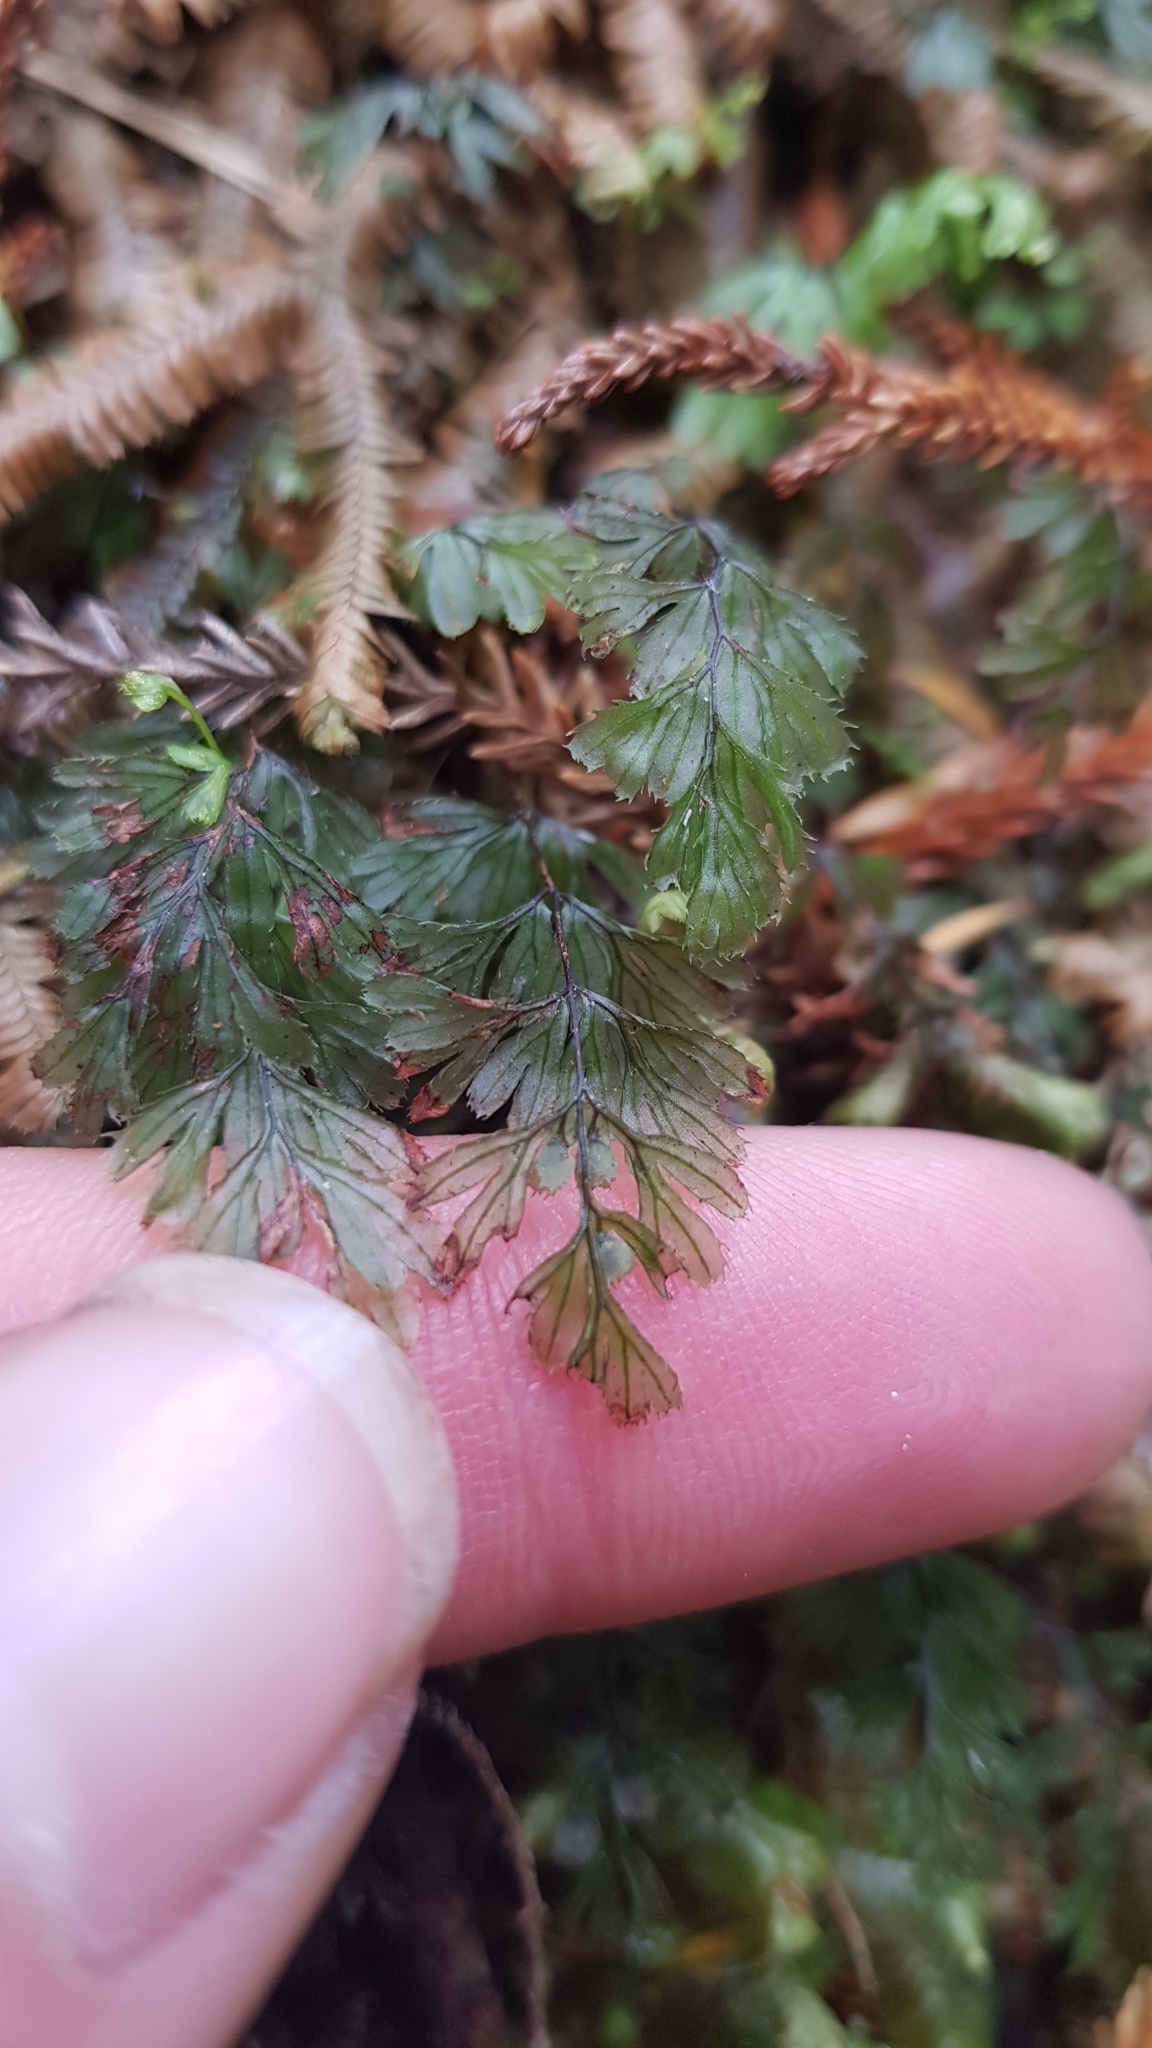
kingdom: Plantae
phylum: Tracheophyta
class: Polypodiopsida
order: Hymenophyllales
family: Hymenophyllaceae
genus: Hymenophyllum
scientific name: Hymenophyllum revolutum
